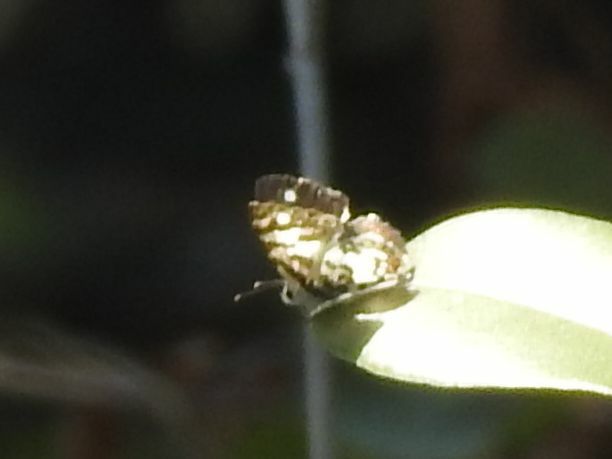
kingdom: Animalia
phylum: Arthropoda
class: Insecta
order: Lepidoptera
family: Lycaenidae
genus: Castalius
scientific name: Castalius melaena
